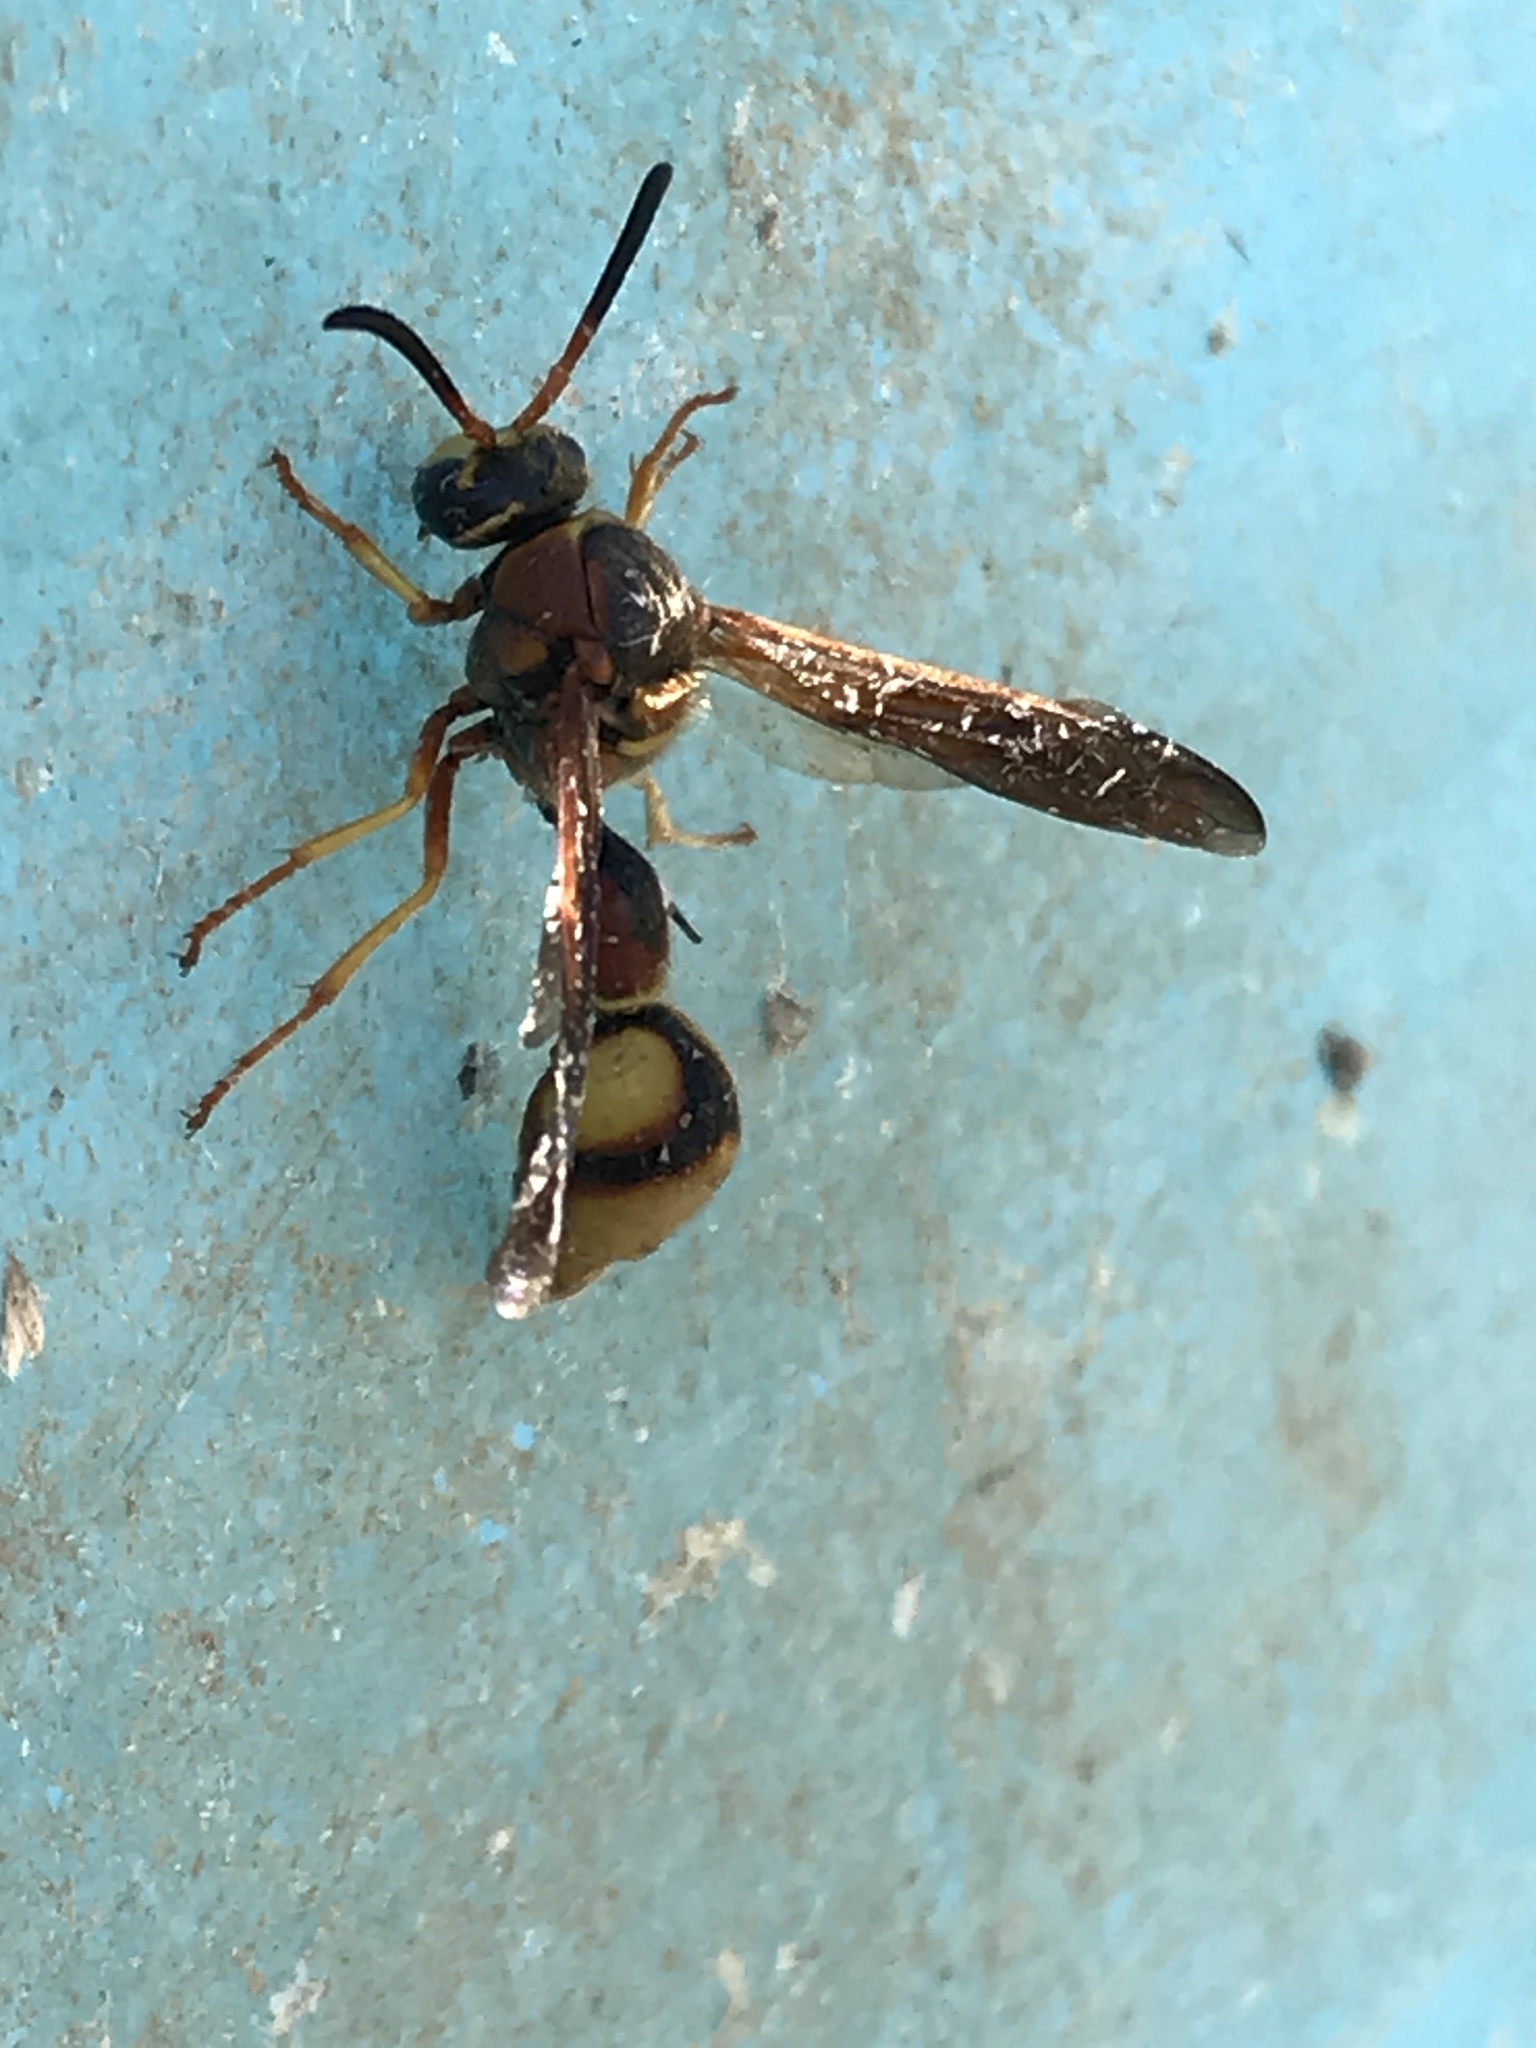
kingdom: Animalia
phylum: Arthropoda
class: Insecta
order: Hymenoptera
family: Vespidae
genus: Eumenes
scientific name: Eumenes bollii
